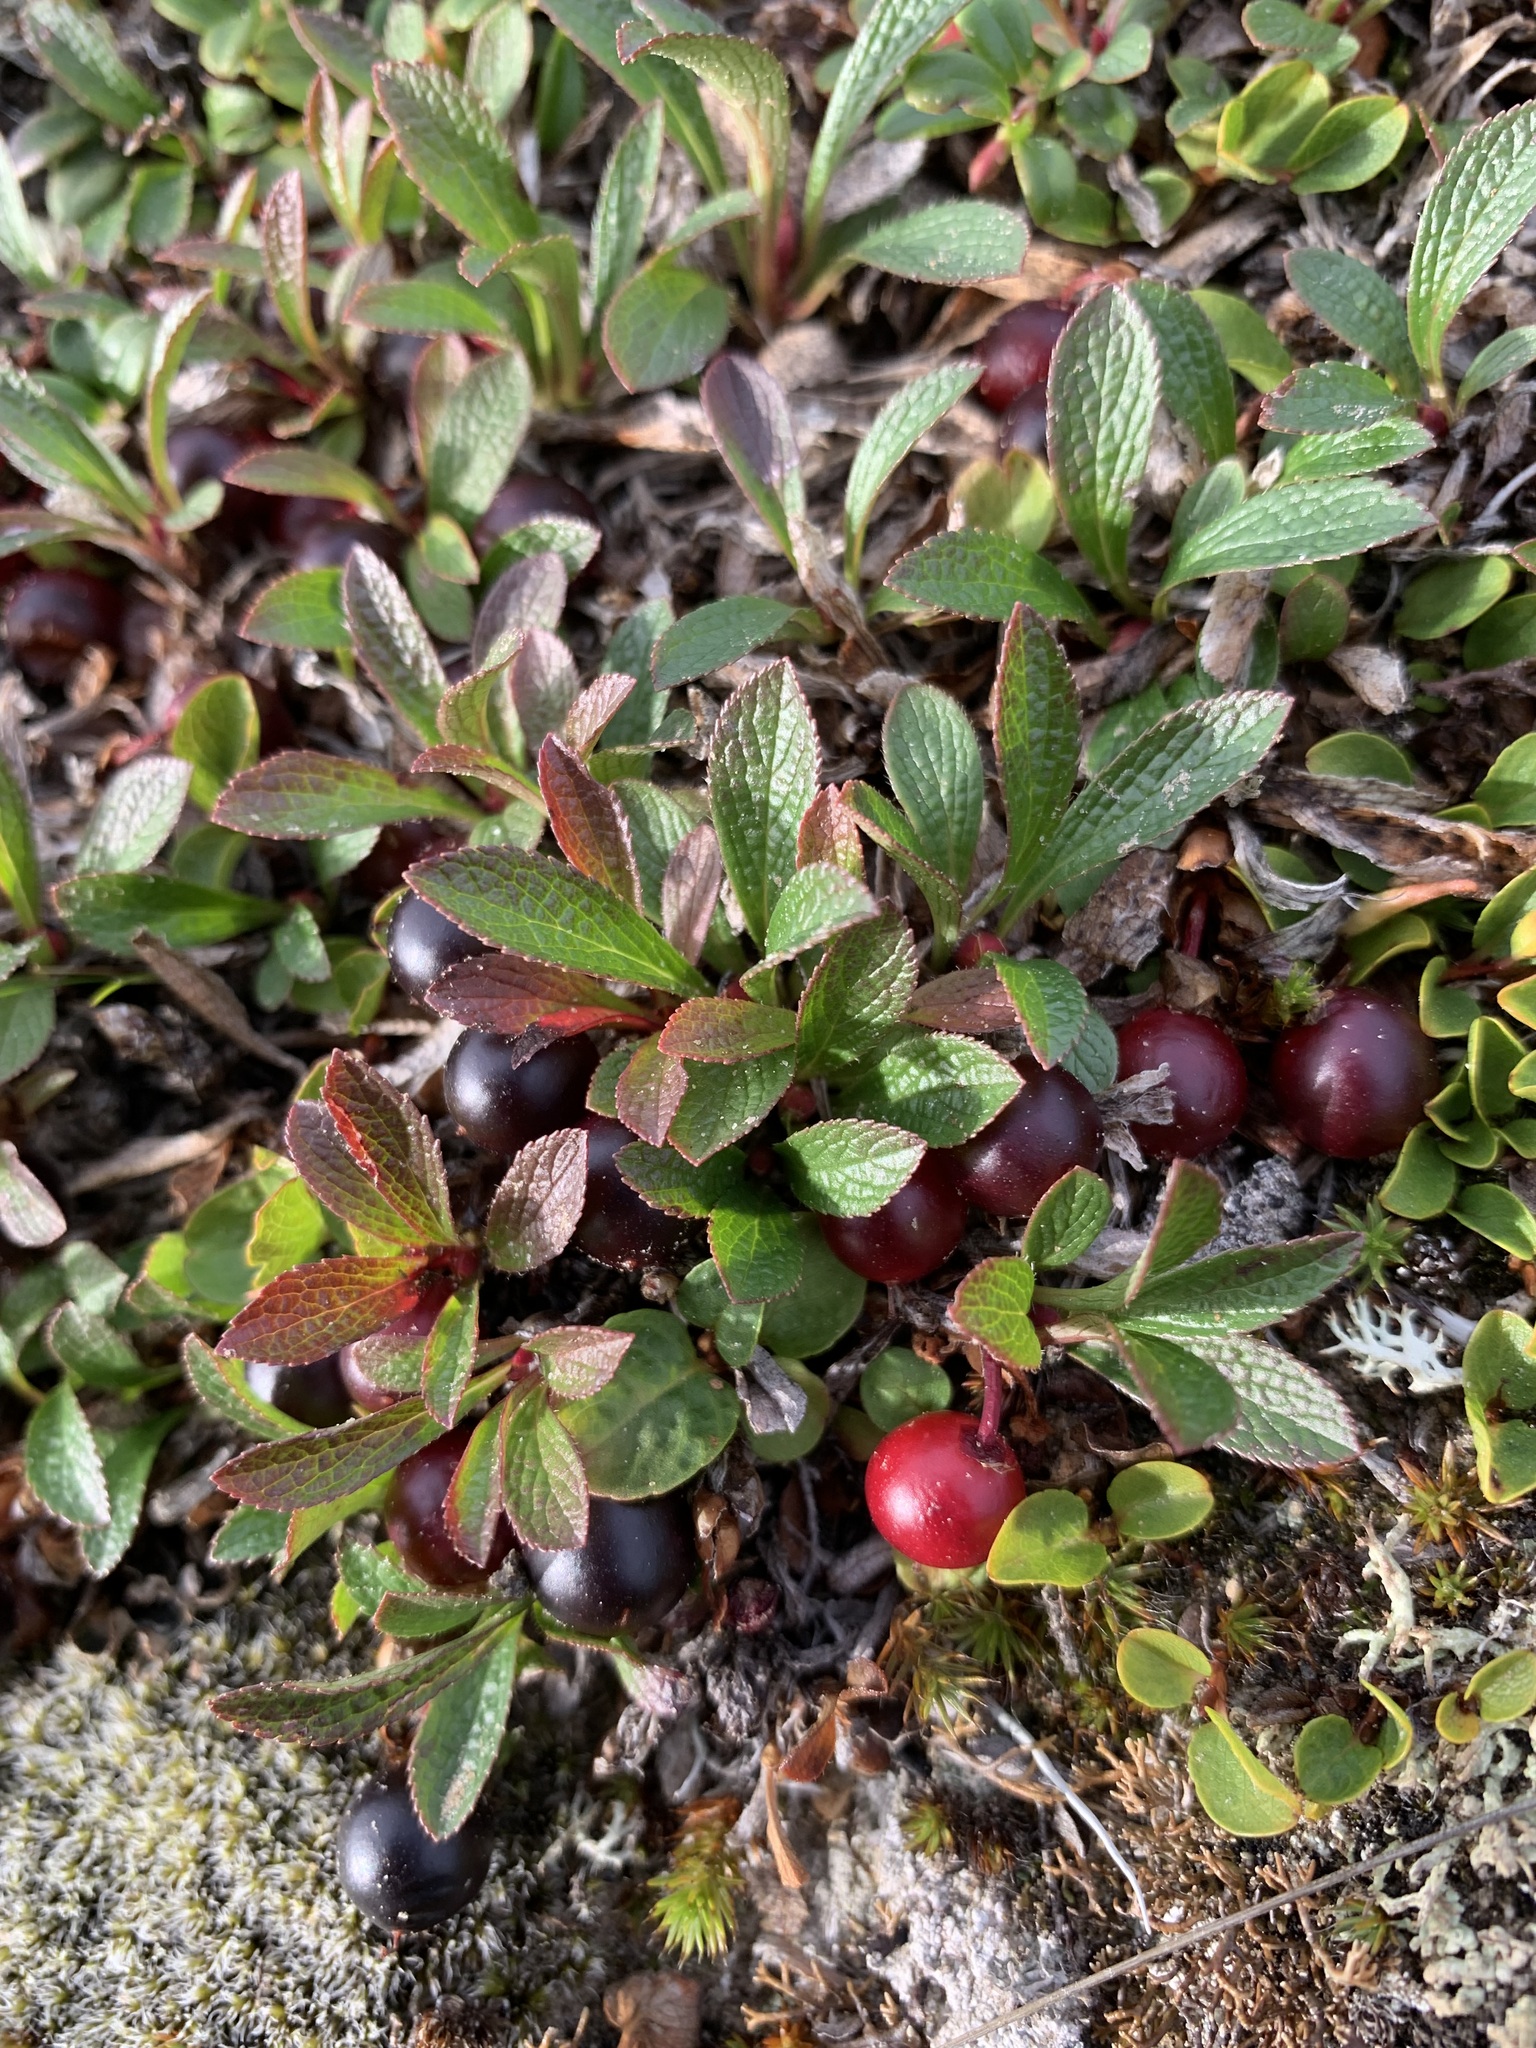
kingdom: Plantae
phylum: Tracheophyta
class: Magnoliopsida
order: Ericales
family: Ericaceae
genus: Arctostaphylos
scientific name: Arctostaphylos alpinus
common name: Alpine bearberry
